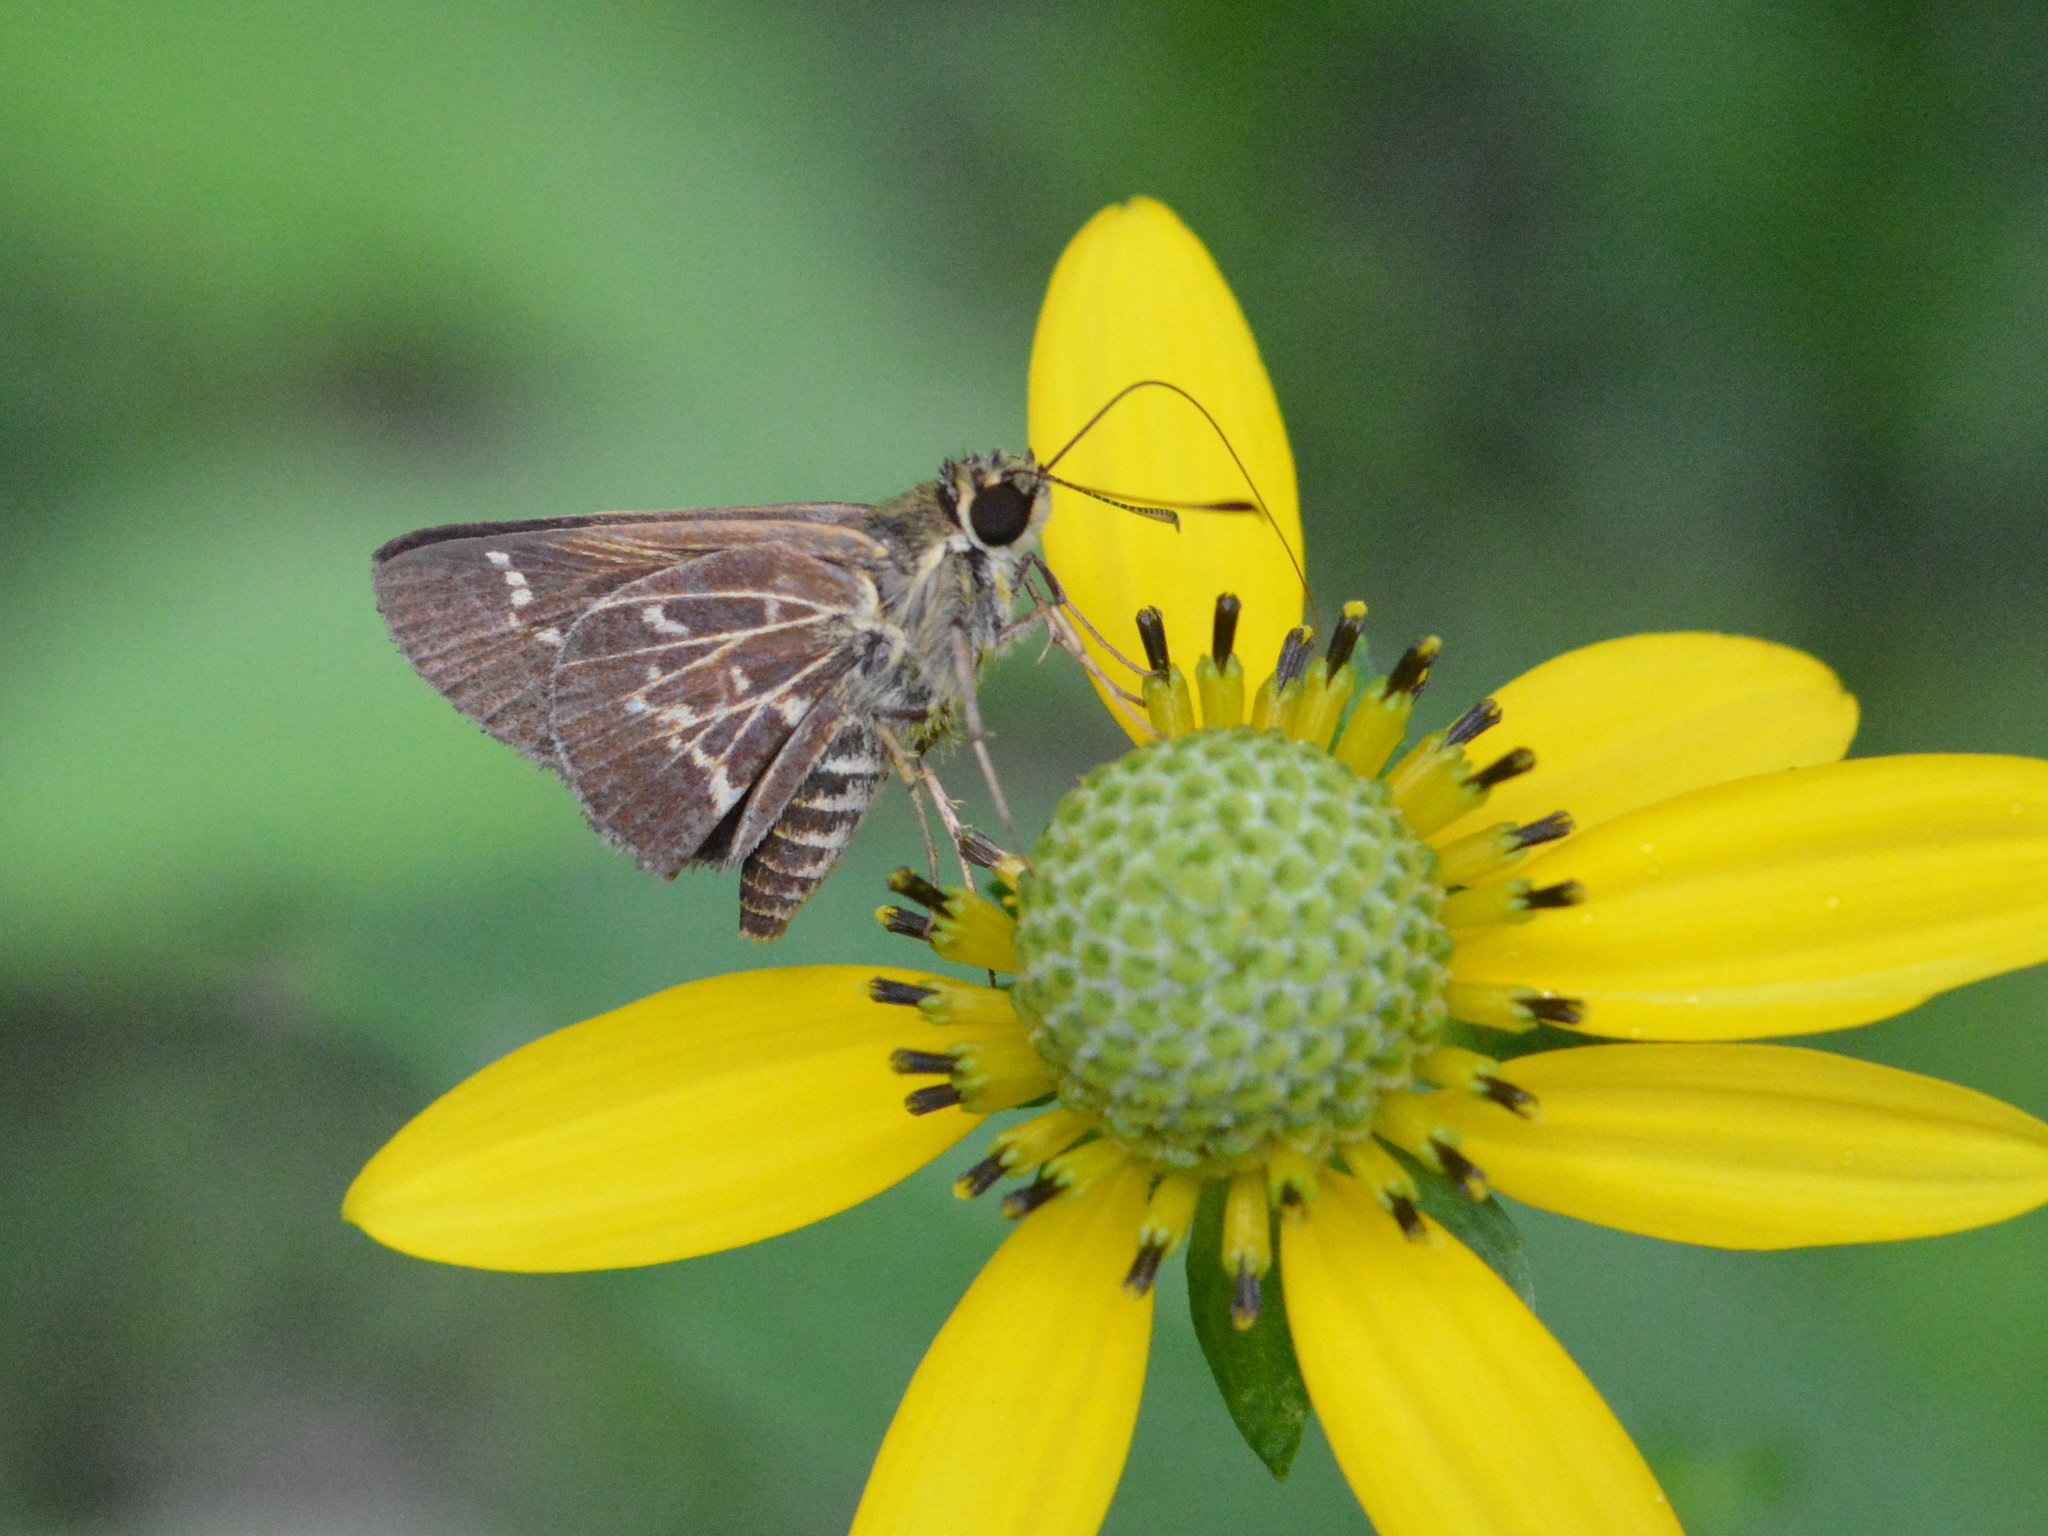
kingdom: Animalia
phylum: Arthropoda
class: Insecta
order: Lepidoptera
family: Hesperiidae
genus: Mastor
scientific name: Mastor aesculapius
